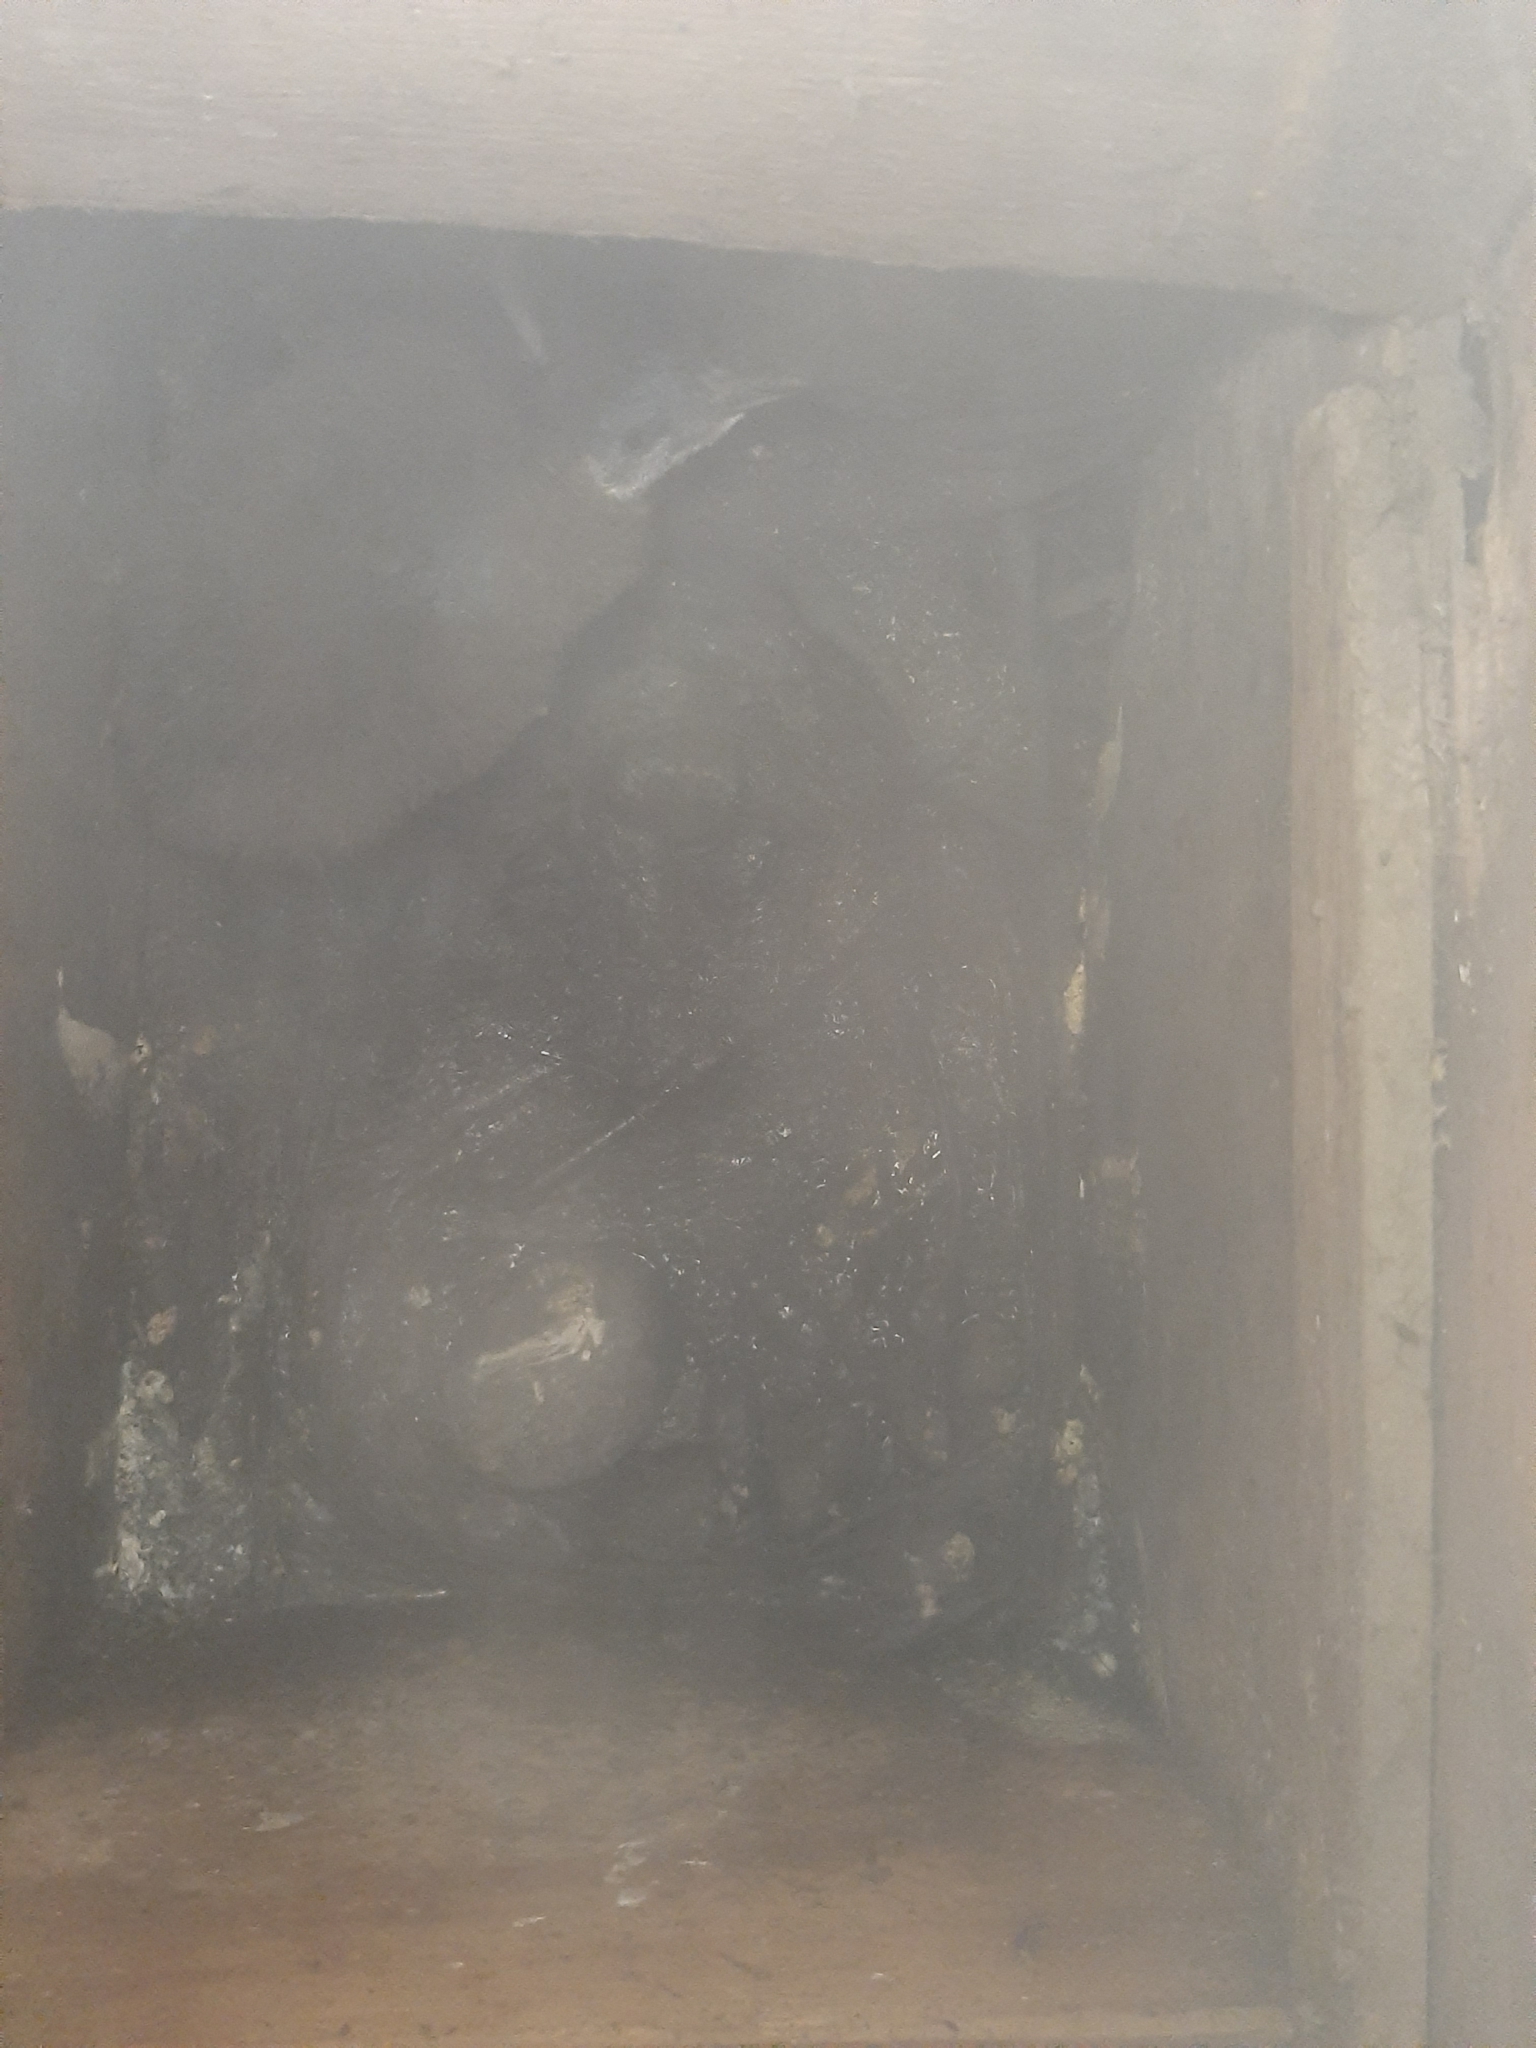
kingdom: Animalia
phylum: Chordata
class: Aves
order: Sphenisciformes
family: Spheniscidae
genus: Eudyptula
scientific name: Eudyptula minor
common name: Little penguin
